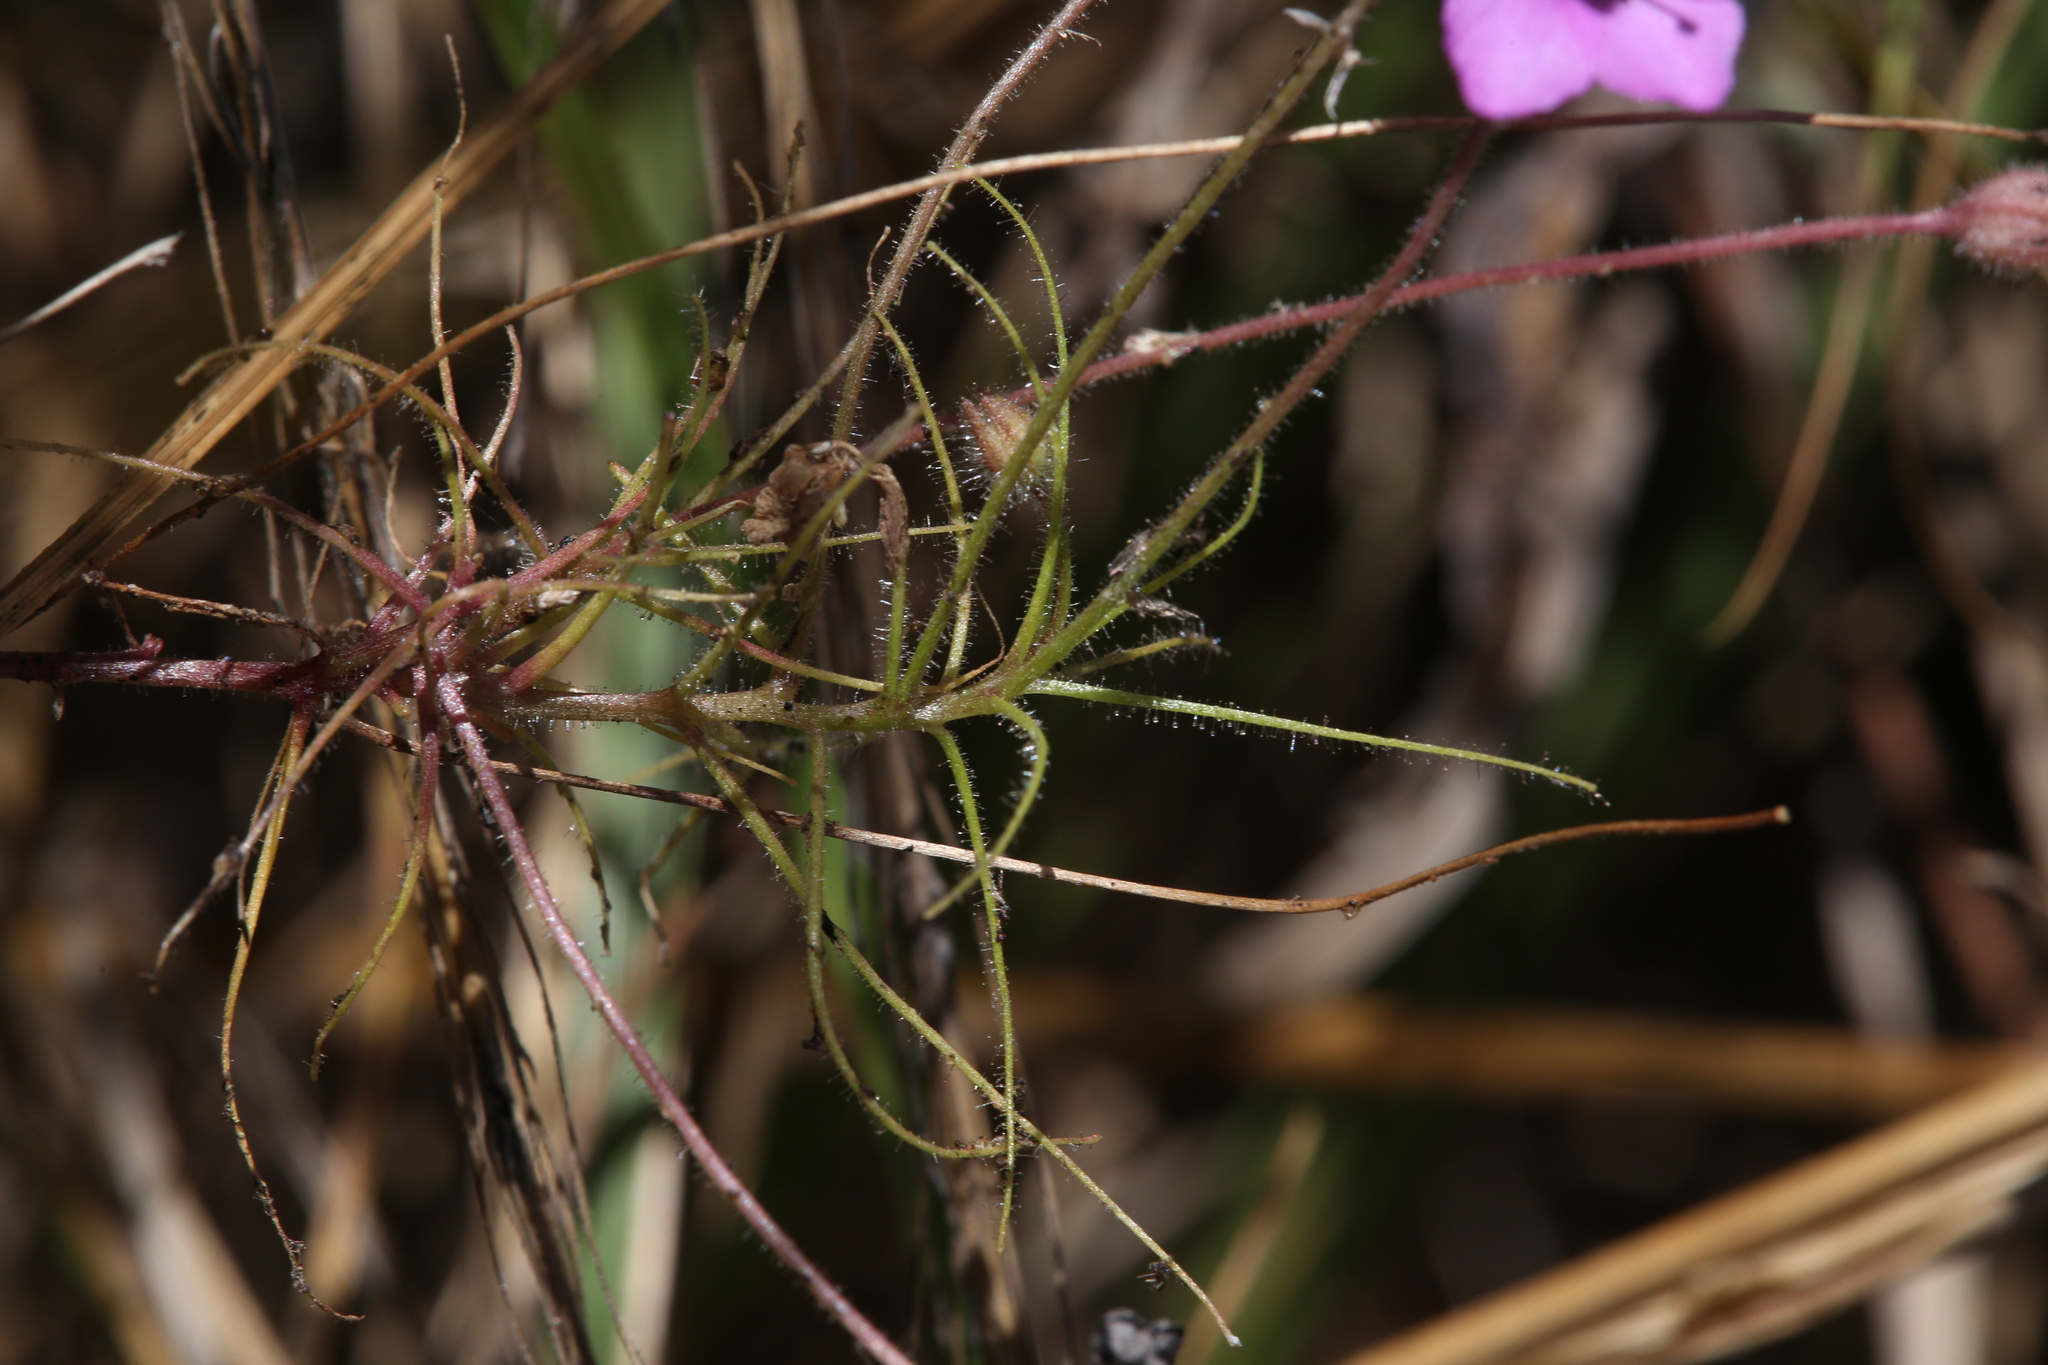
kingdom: Plantae
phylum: Tracheophyta
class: Magnoliopsida
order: Lamiales
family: Byblidaceae
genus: Byblis
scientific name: Byblis filifolia
